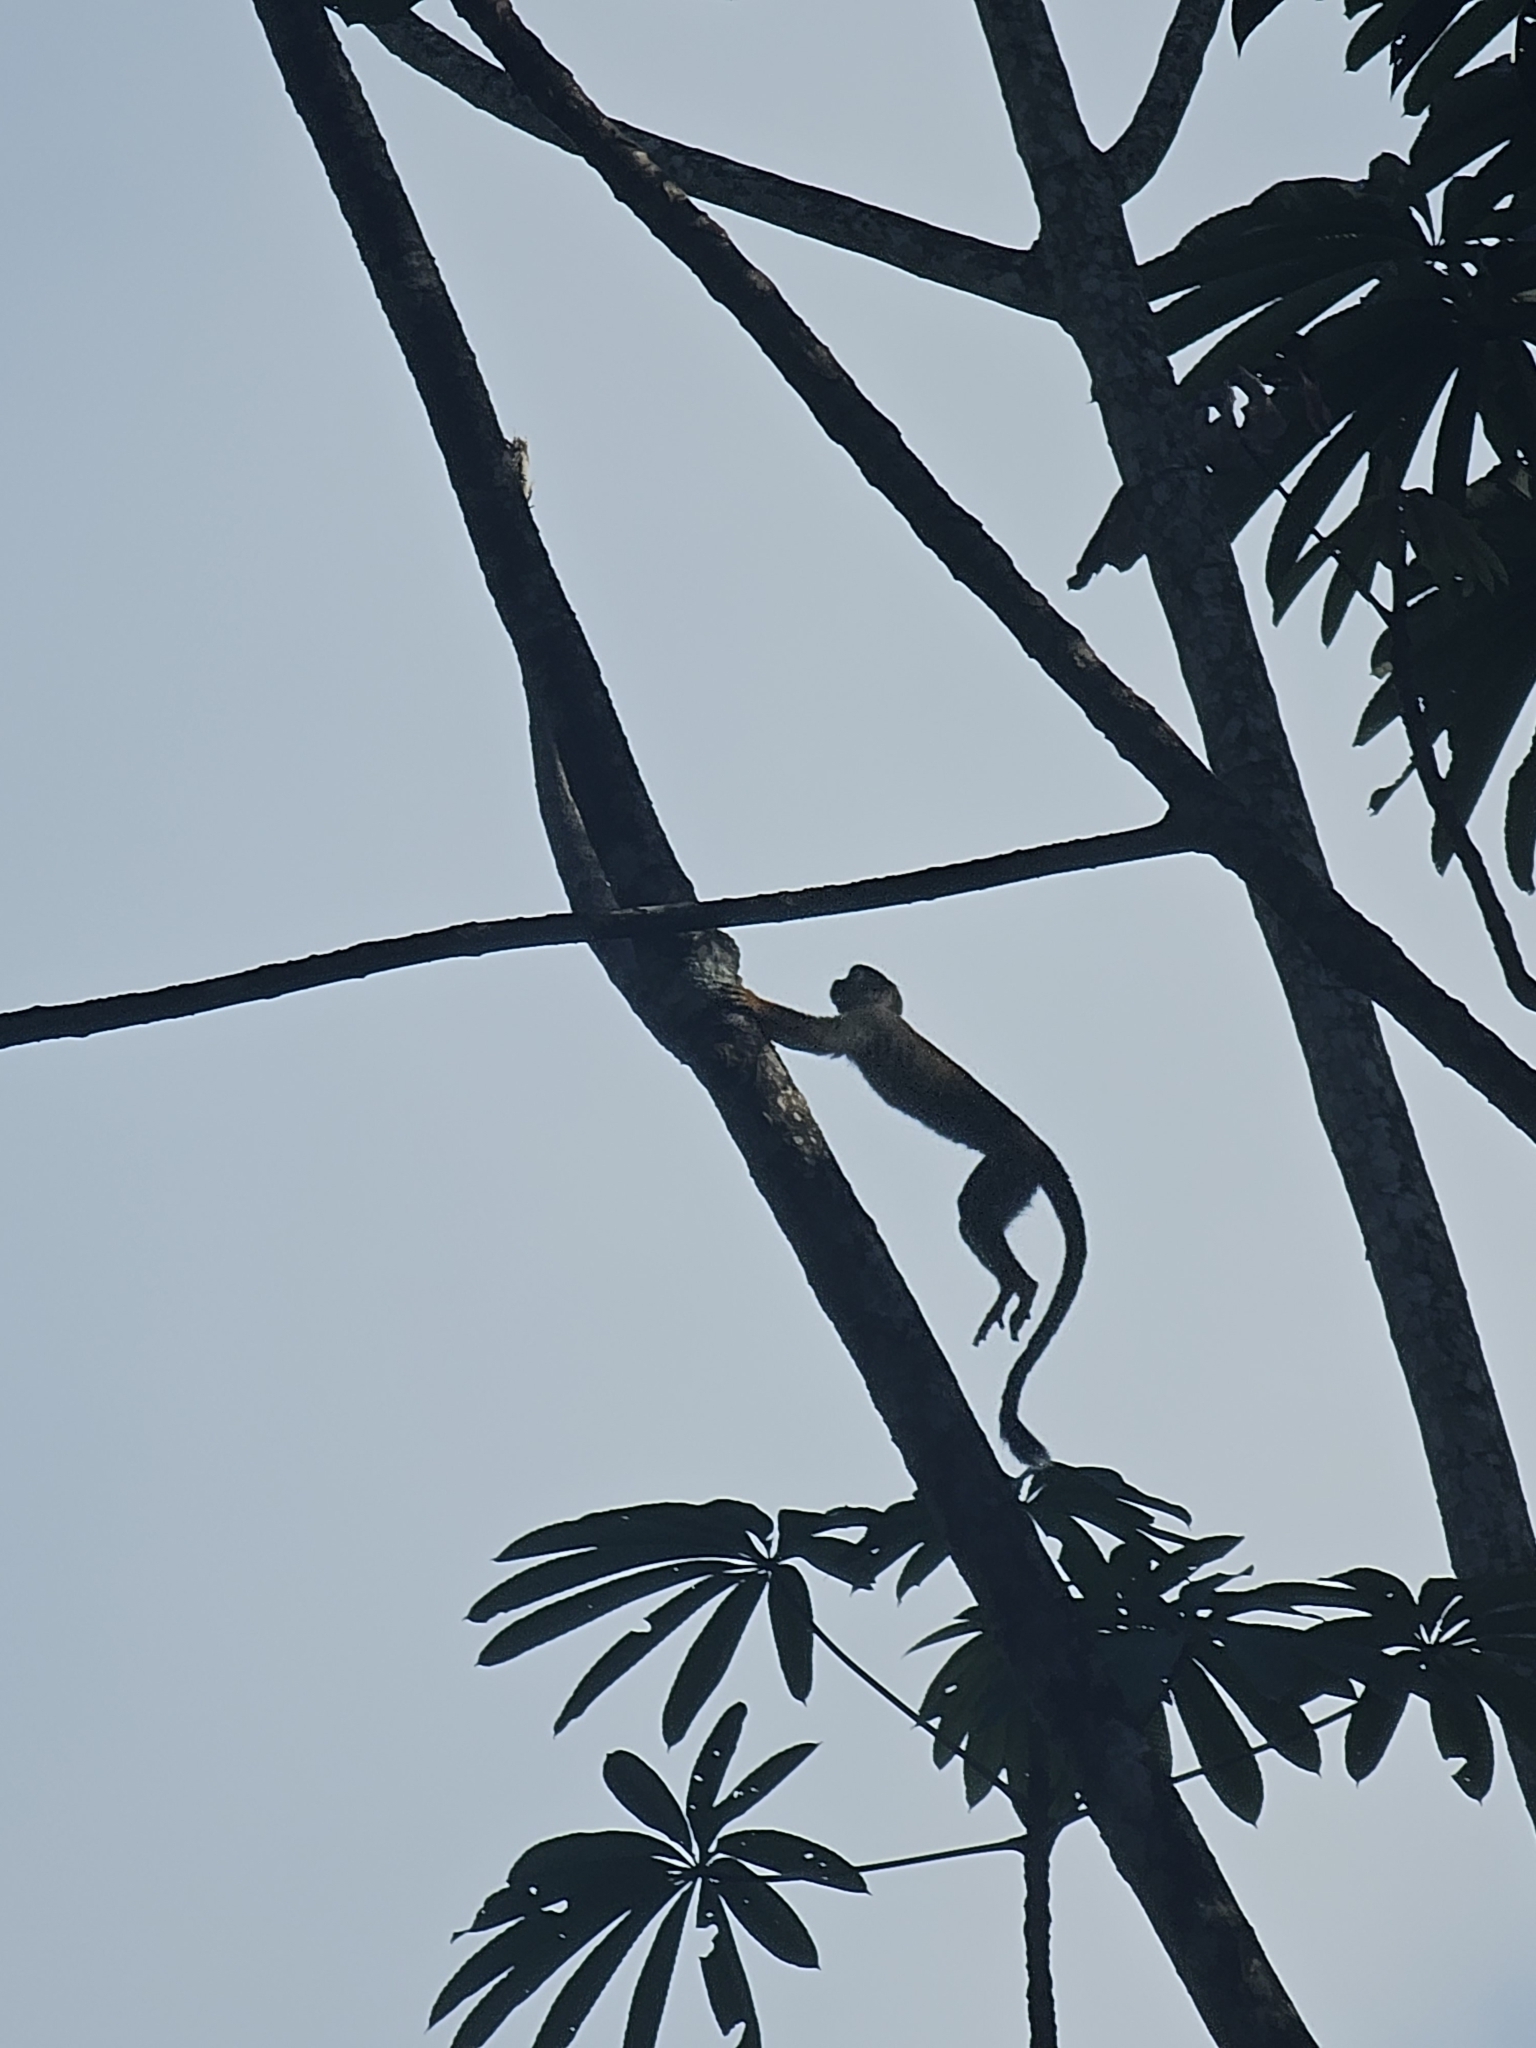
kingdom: Animalia
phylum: Chordata
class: Mammalia
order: Primates
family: Cebidae
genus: Saimiri
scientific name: Saimiri sciureus
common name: Common squirrel monkey
